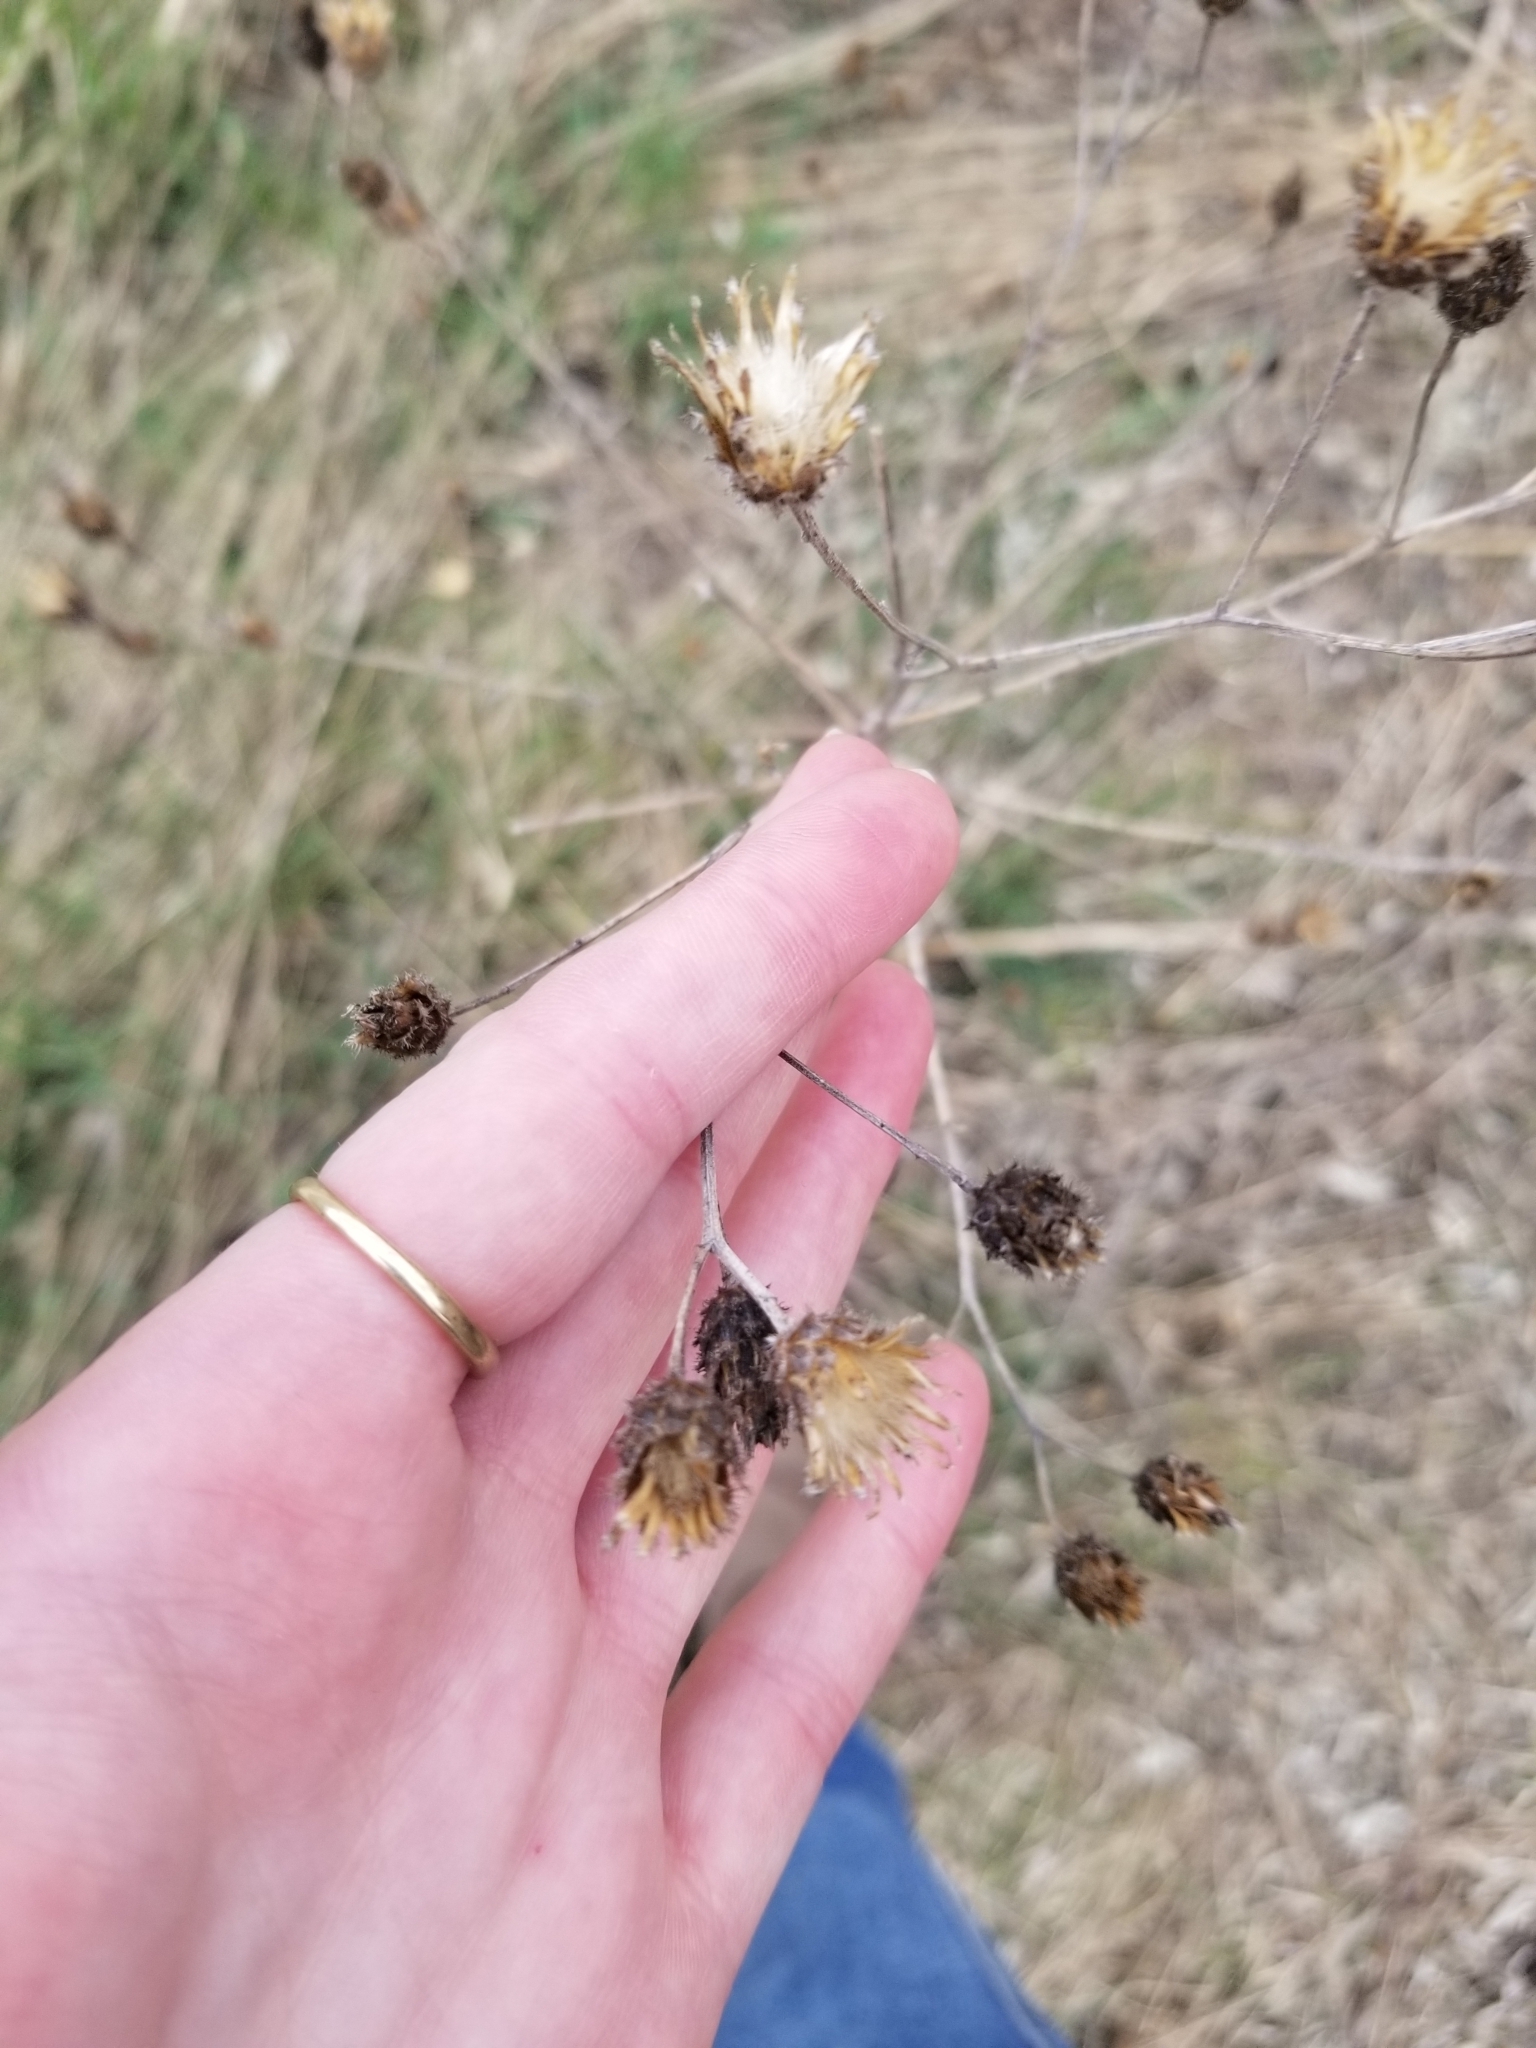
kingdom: Plantae
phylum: Tracheophyta
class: Magnoliopsida
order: Asterales
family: Asteraceae
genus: Centaurea
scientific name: Centaurea stoebe
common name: Spotted knapweed
